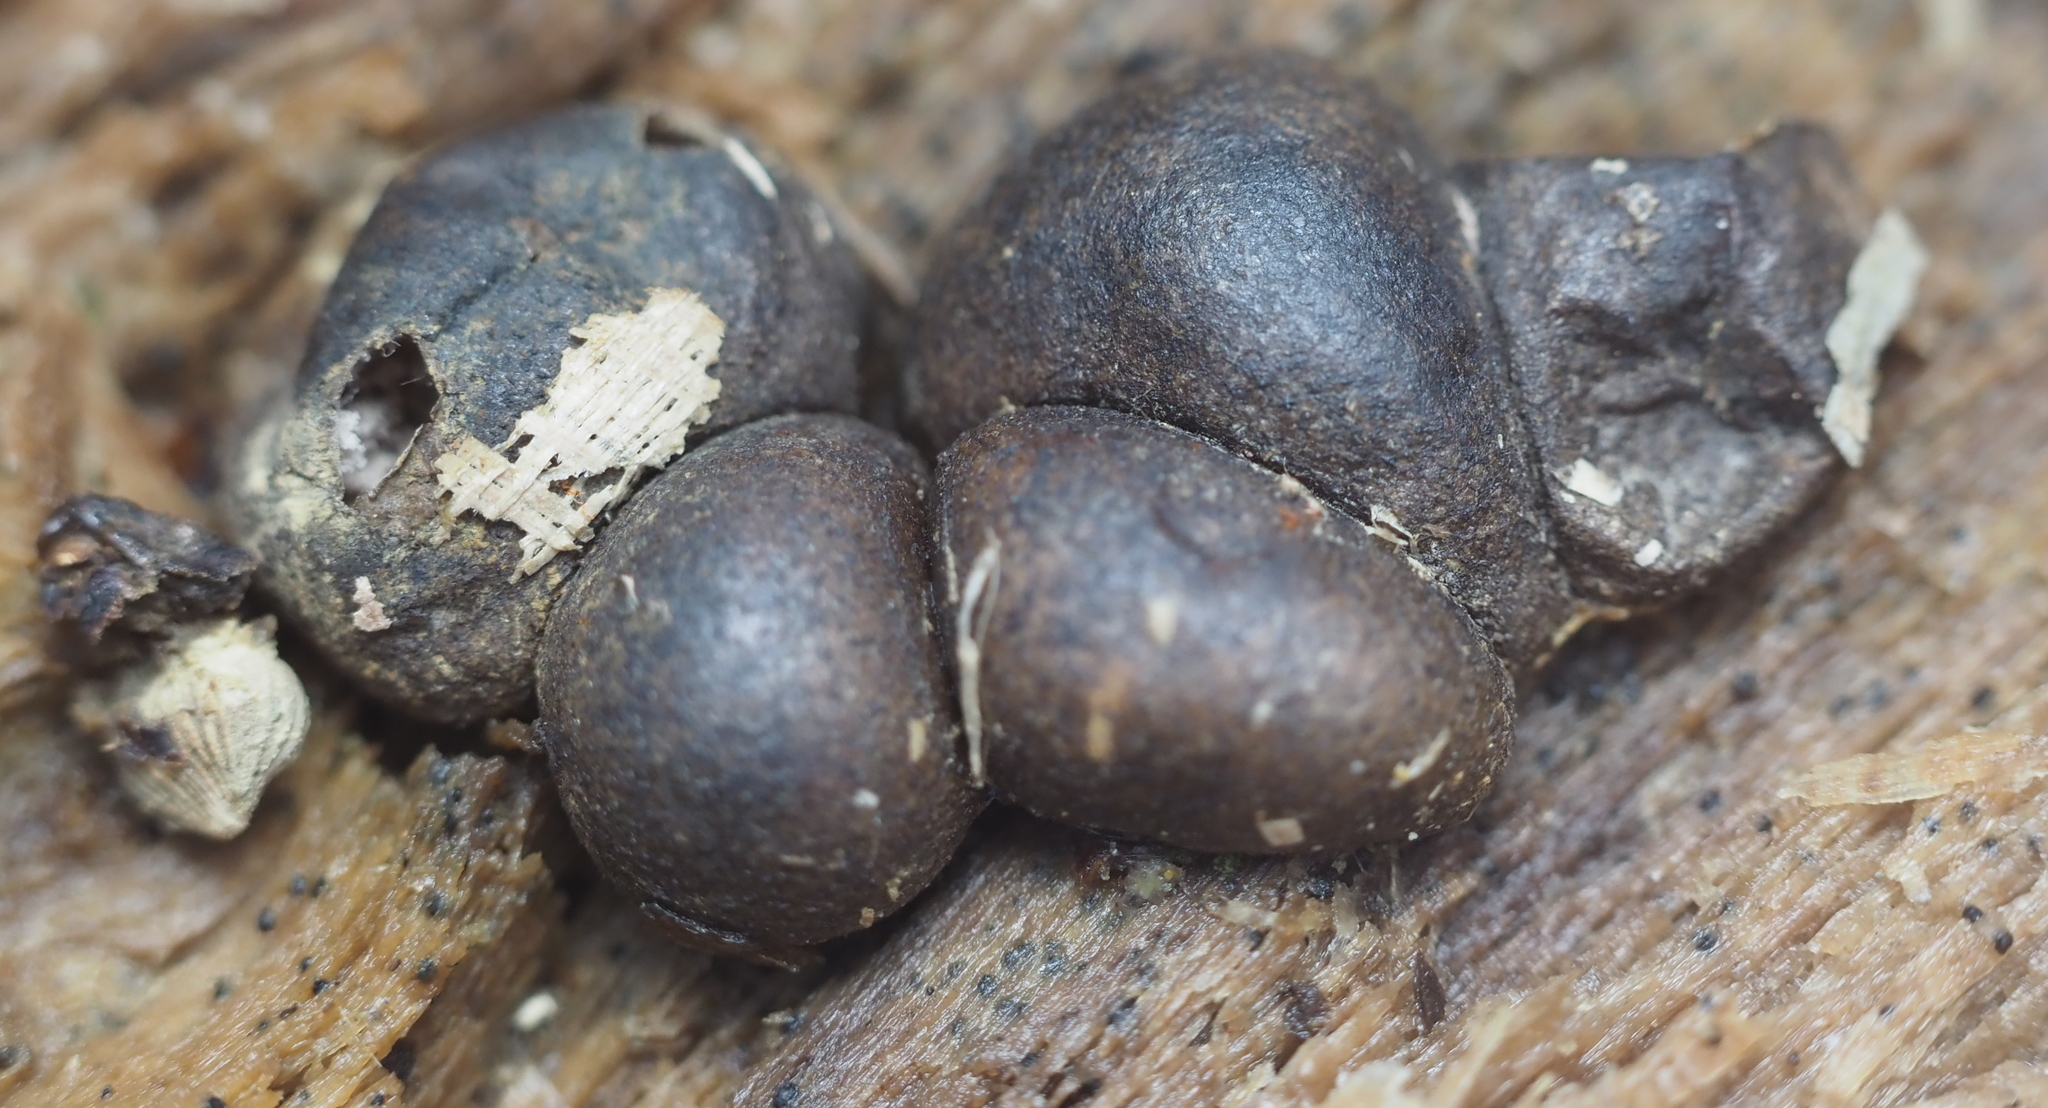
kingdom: Protozoa
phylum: Mycetozoa
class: Myxomycetes
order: Cribrariales
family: Tubiferaceae
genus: Lycogala
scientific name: Lycogala epidendrum
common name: Wolf's milk
